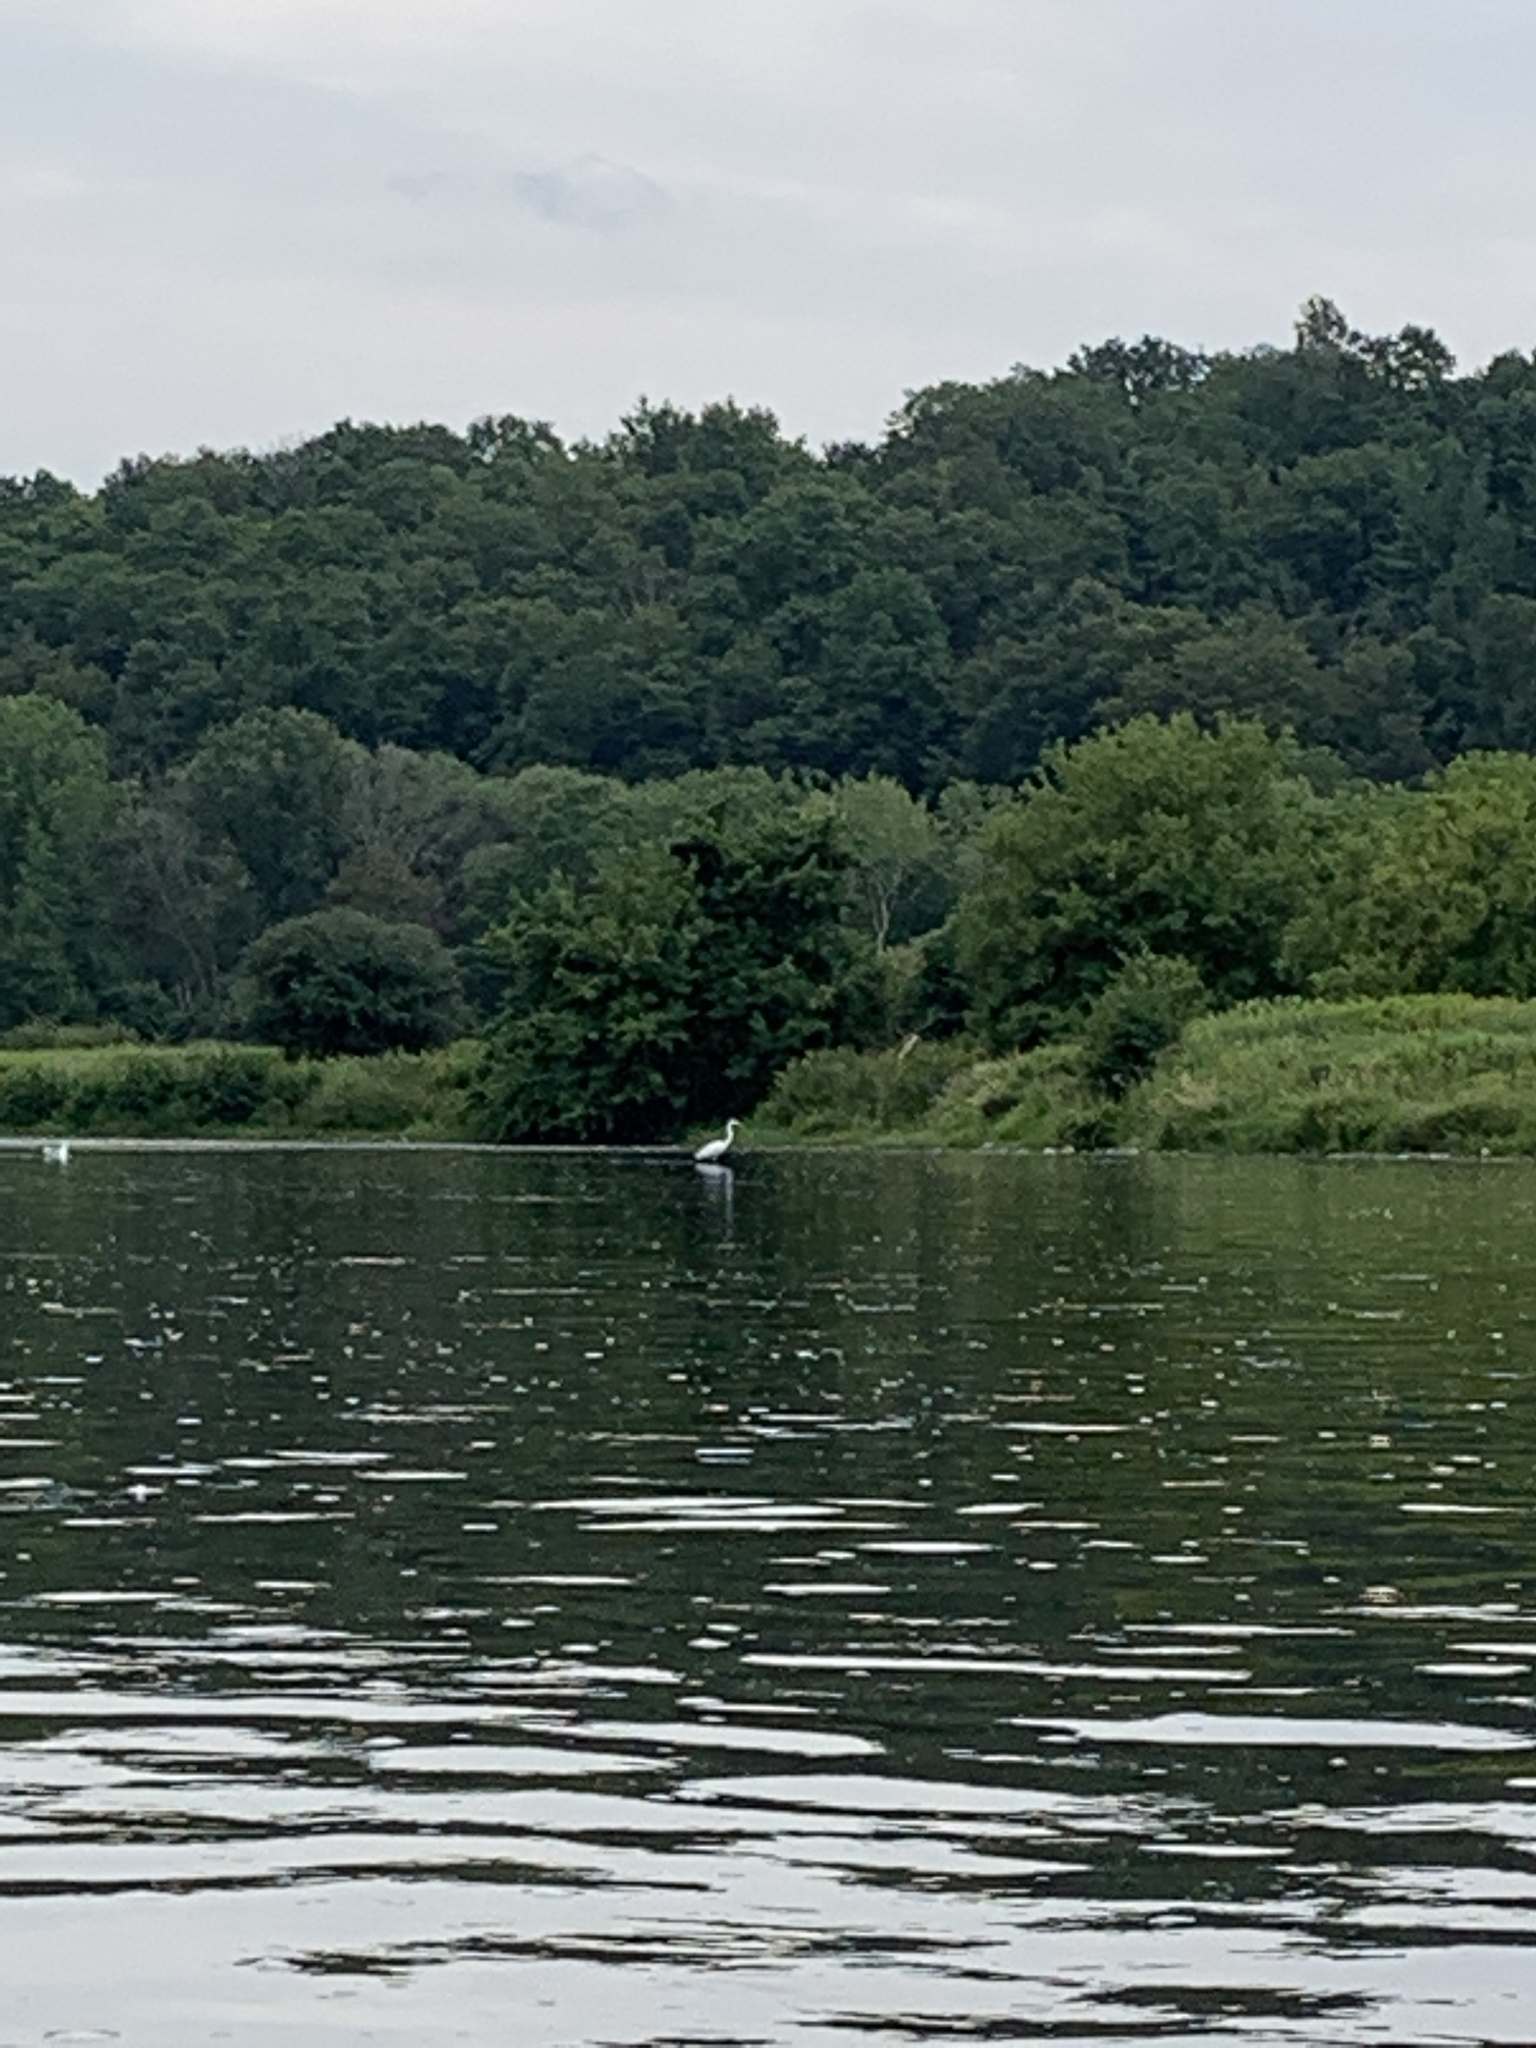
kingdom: Animalia
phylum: Chordata
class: Aves
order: Pelecaniformes
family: Ardeidae
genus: Ardea
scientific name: Ardea alba
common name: Great egret
